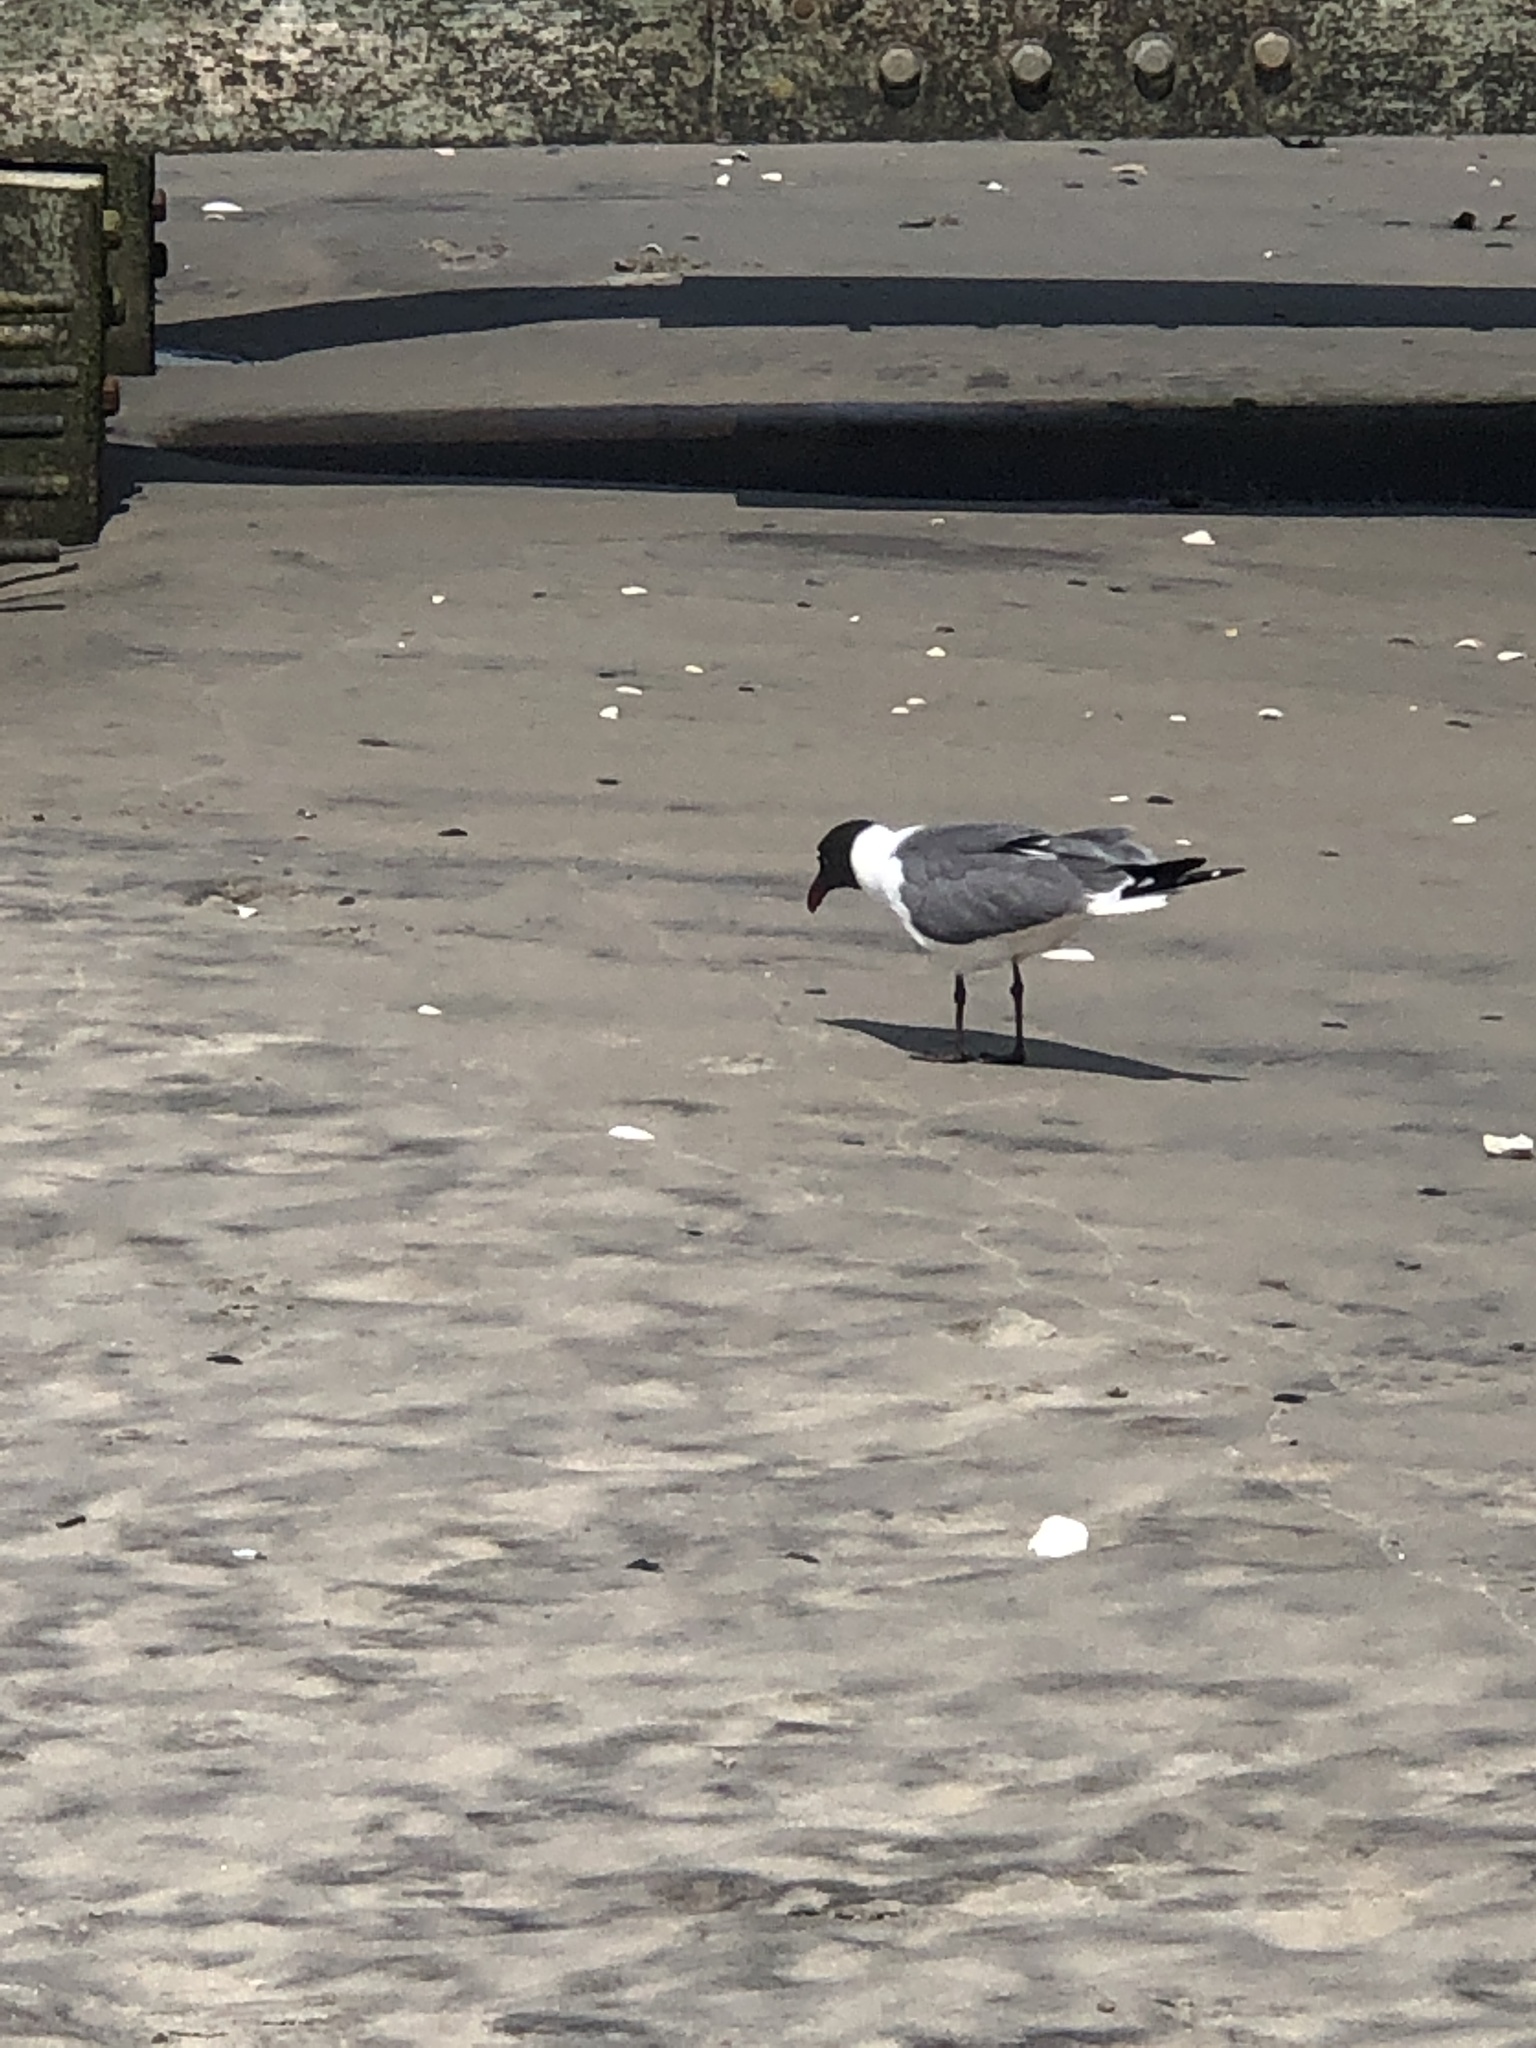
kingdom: Animalia
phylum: Chordata
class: Aves
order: Charadriiformes
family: Laridae
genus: Leucophaeus
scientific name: Leucophaeus atricilla
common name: Laughing gull
